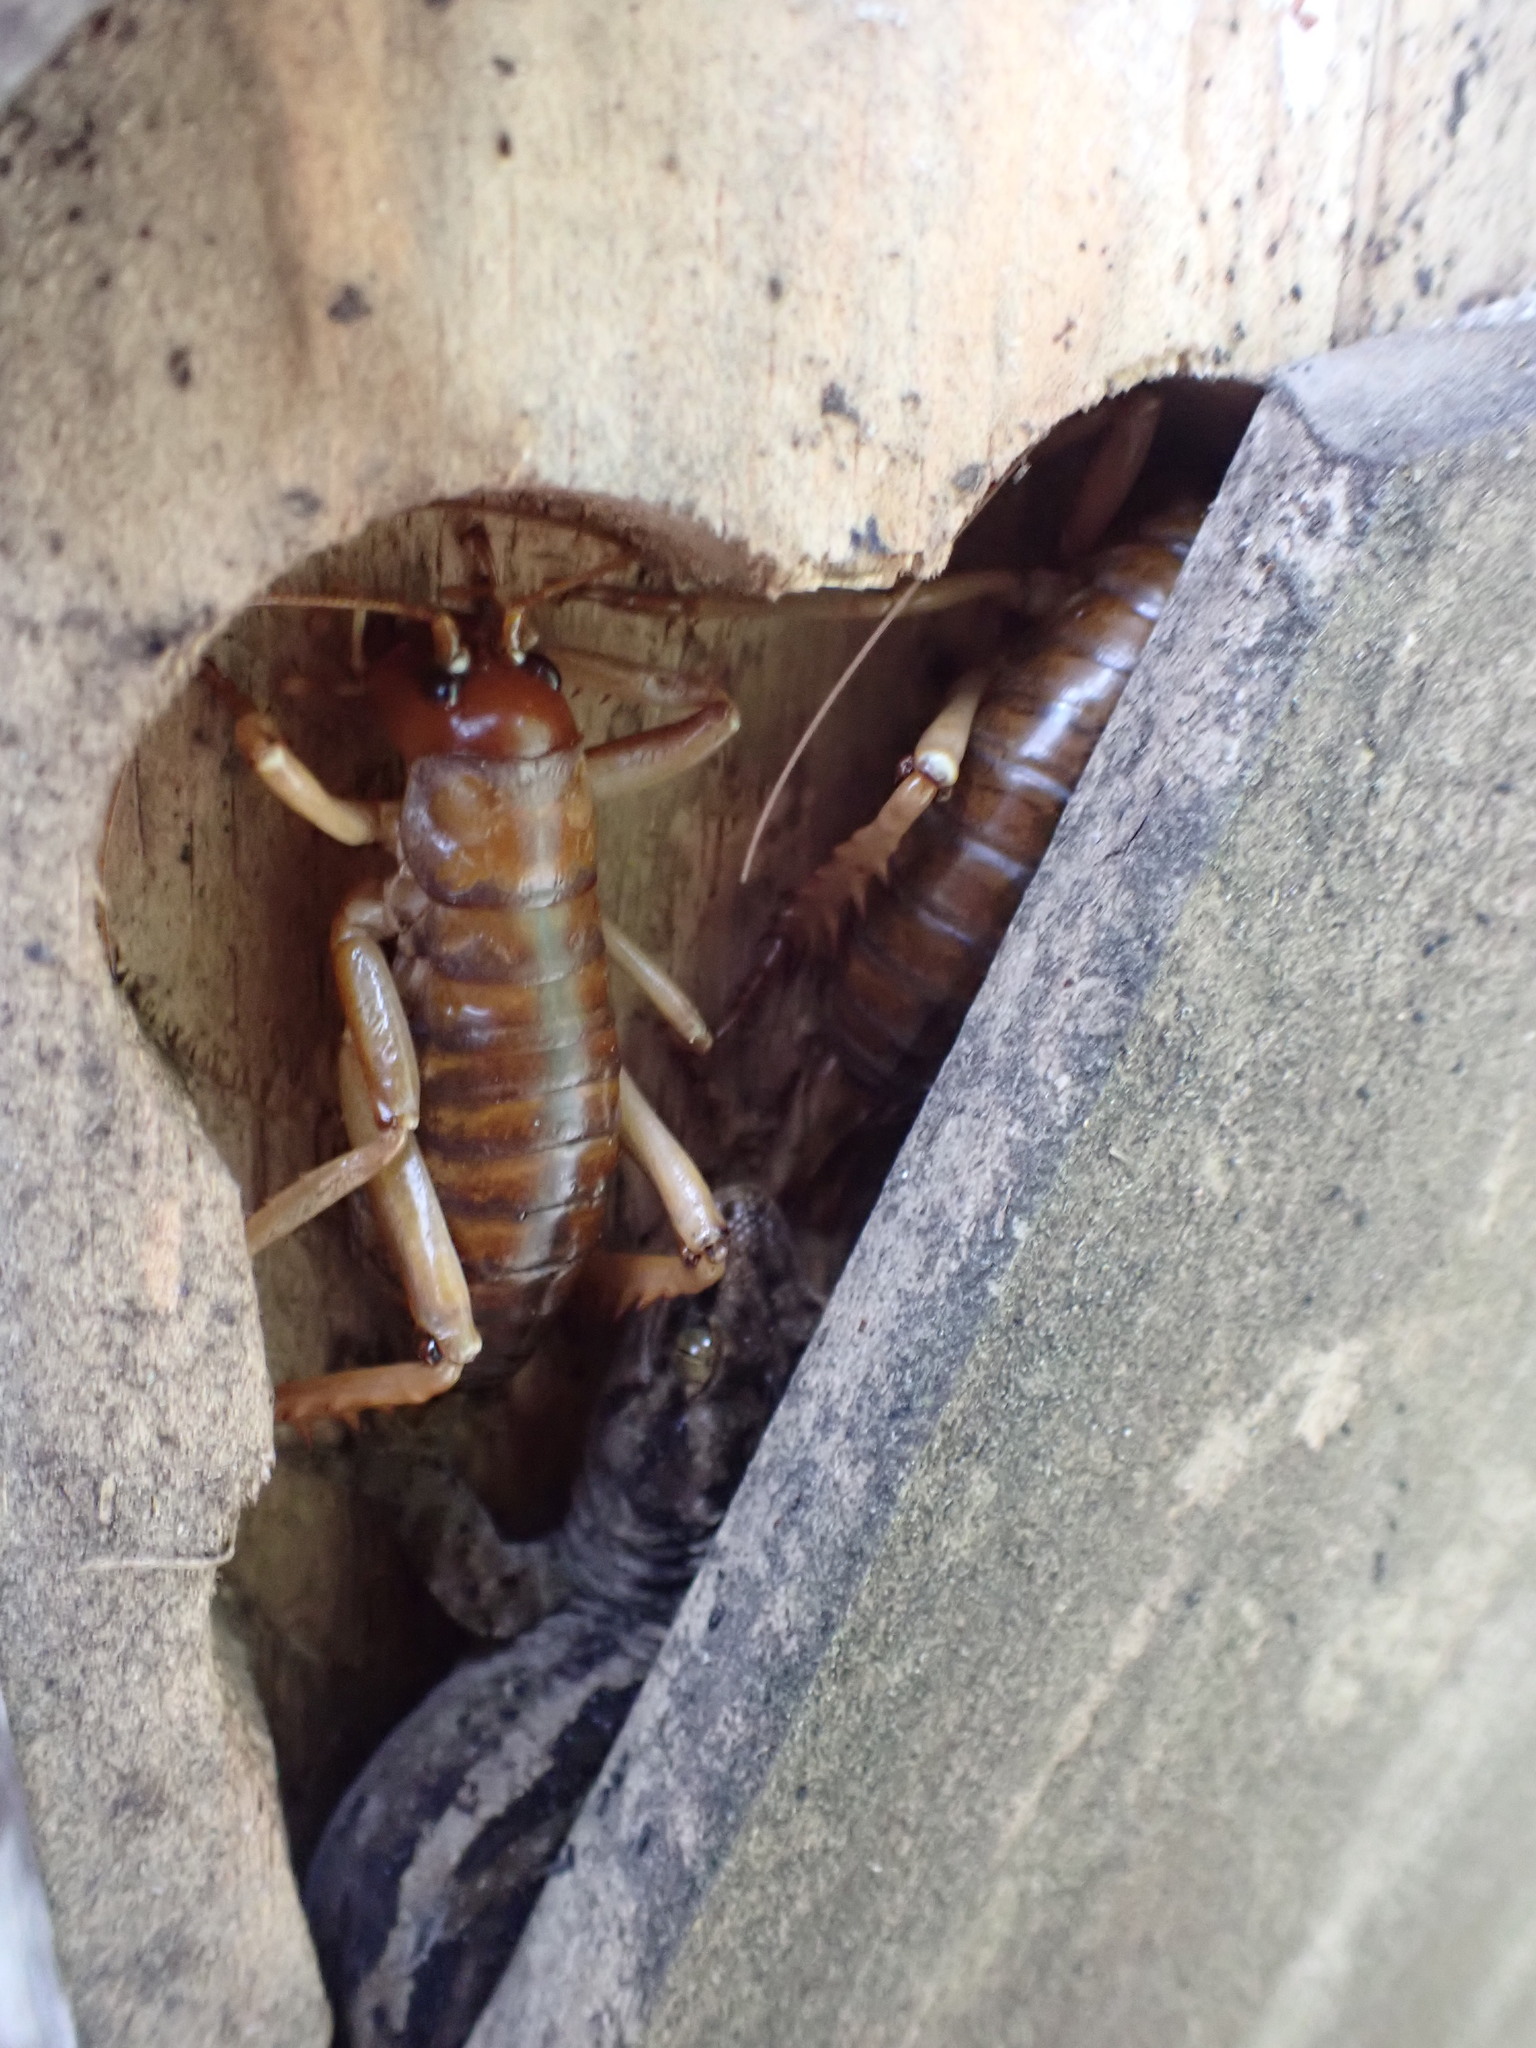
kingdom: Animalia
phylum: Arthropoda
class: Insecta
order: Orthoptera
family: Anostostomatidae
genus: Hemideina
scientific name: Hemideina ricta
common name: Banks peninsula tree weta
